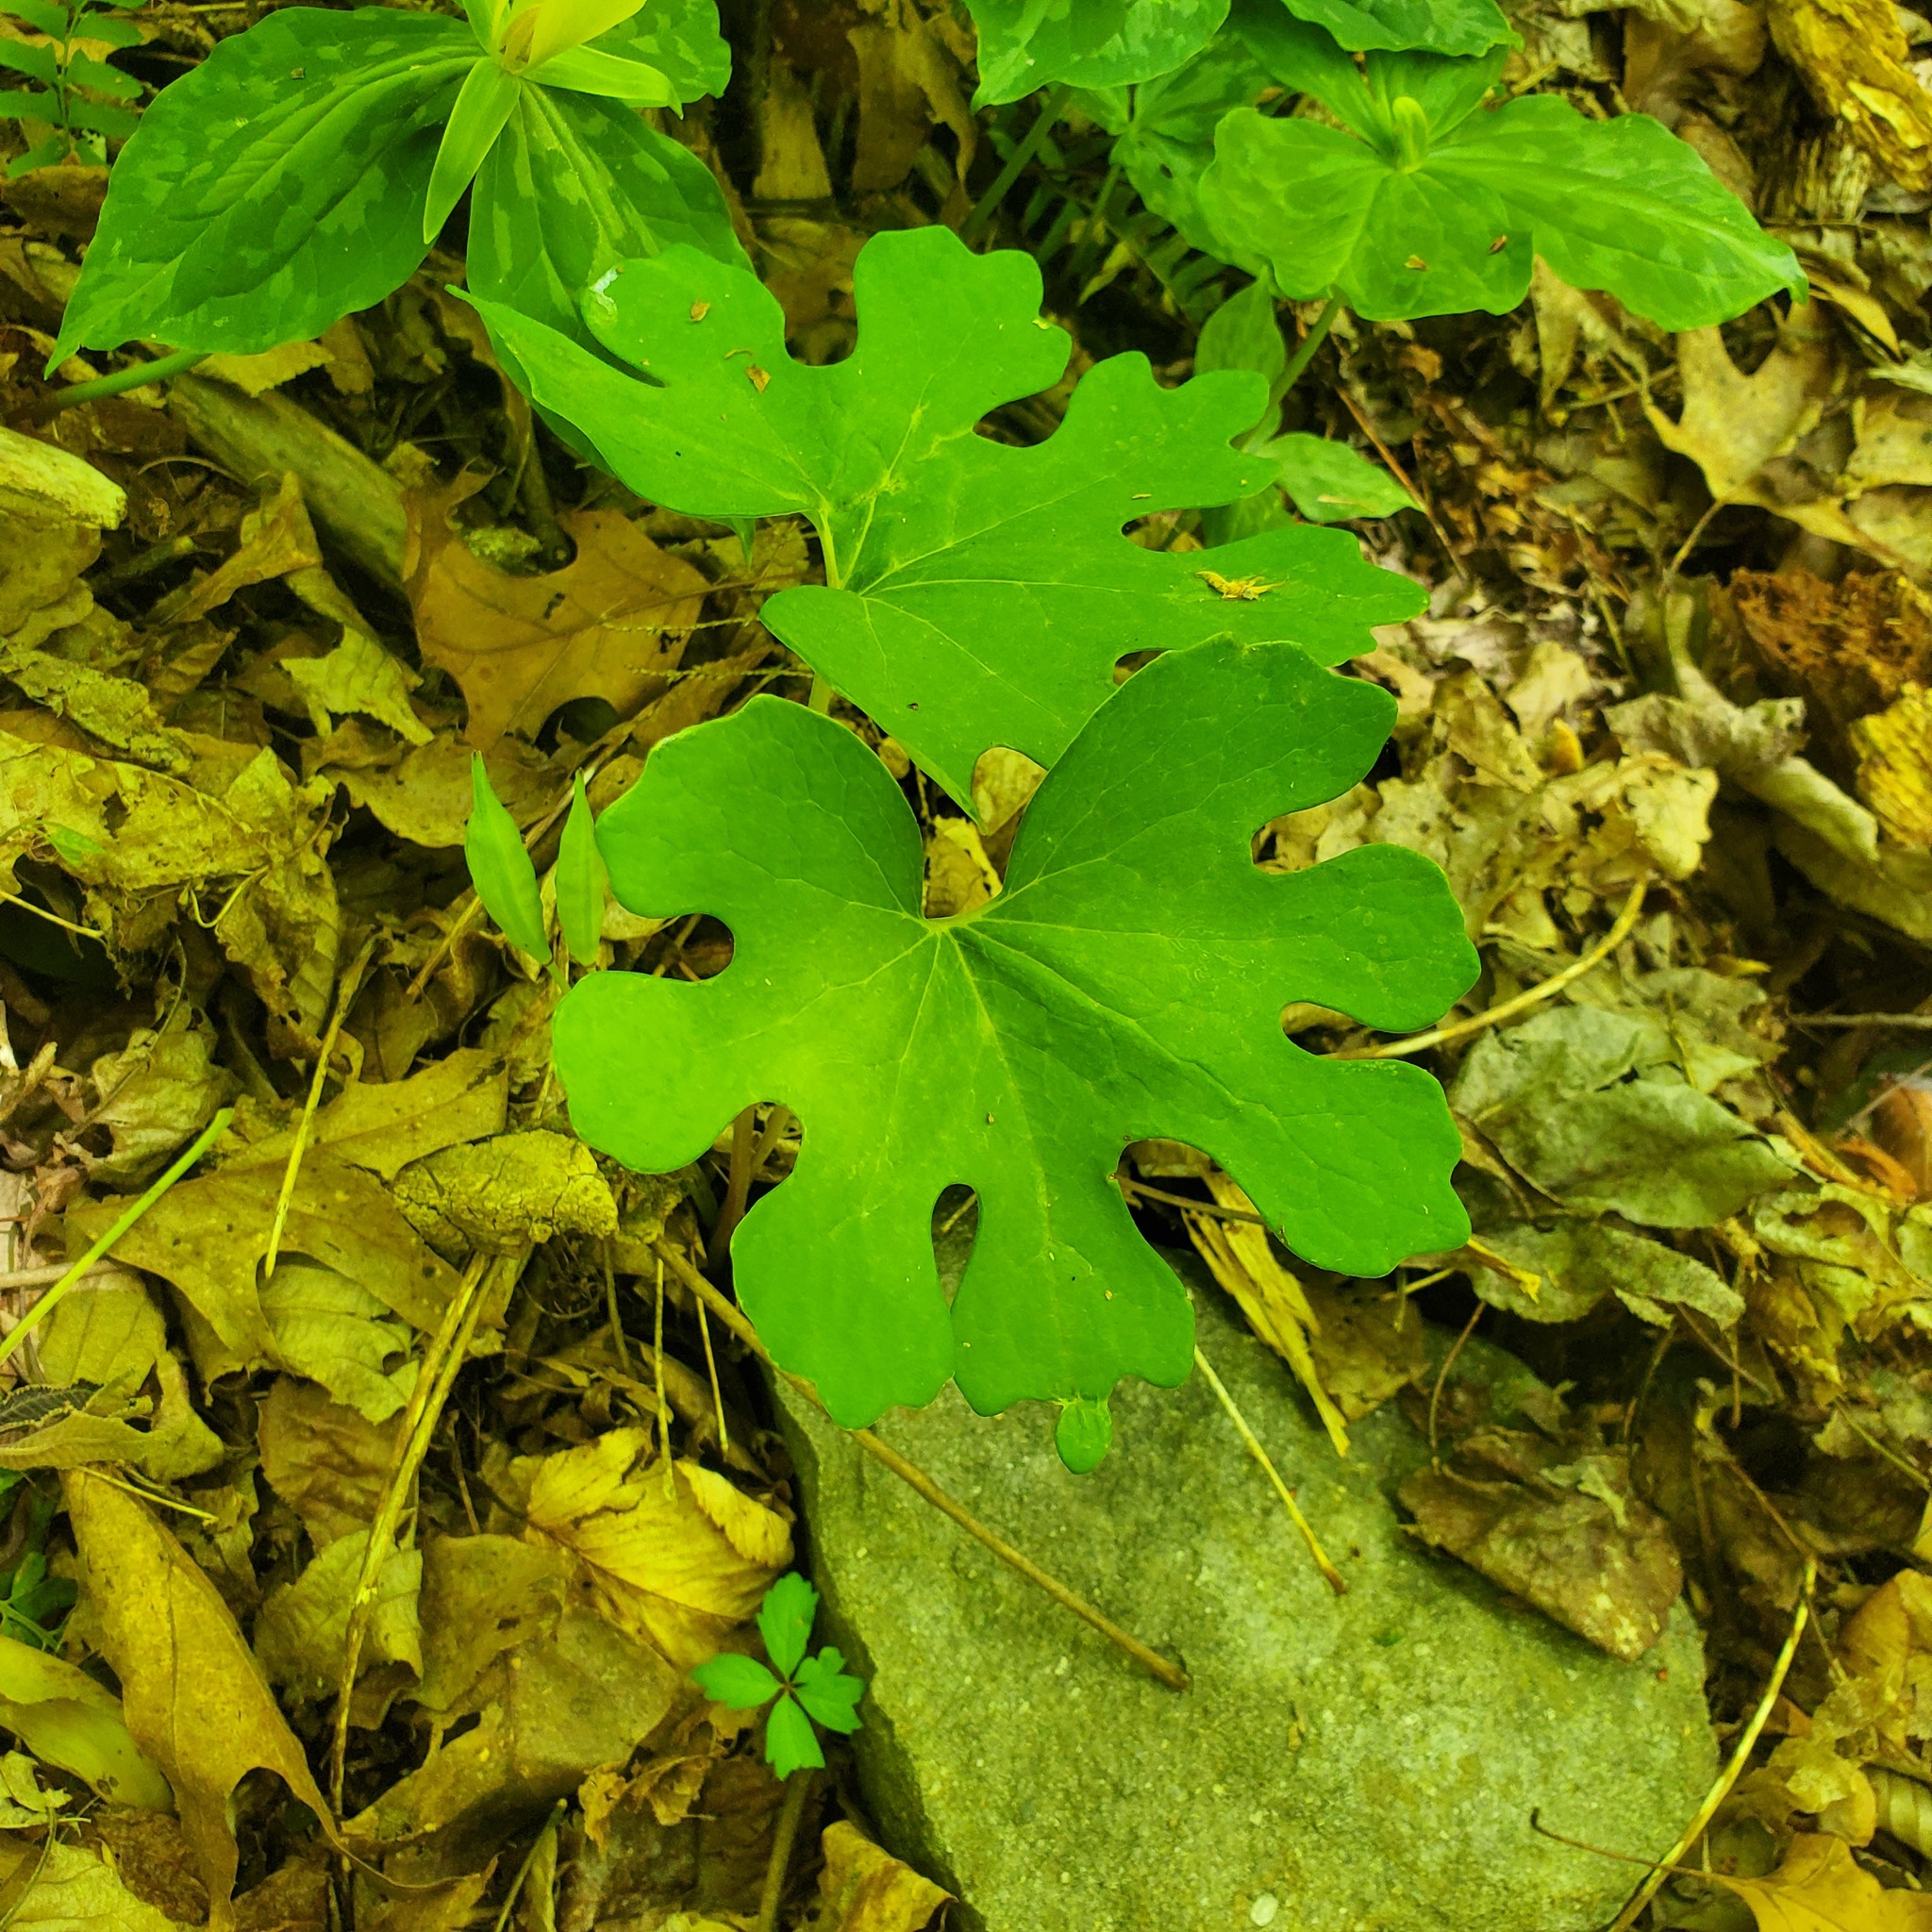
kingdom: Plantae
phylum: Tracheophyta
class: Magnoliopsida
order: Ranunculales
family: Papaveraceae
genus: Sanguinaria
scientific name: Sanguinaria canadensis
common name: Bloodroot
